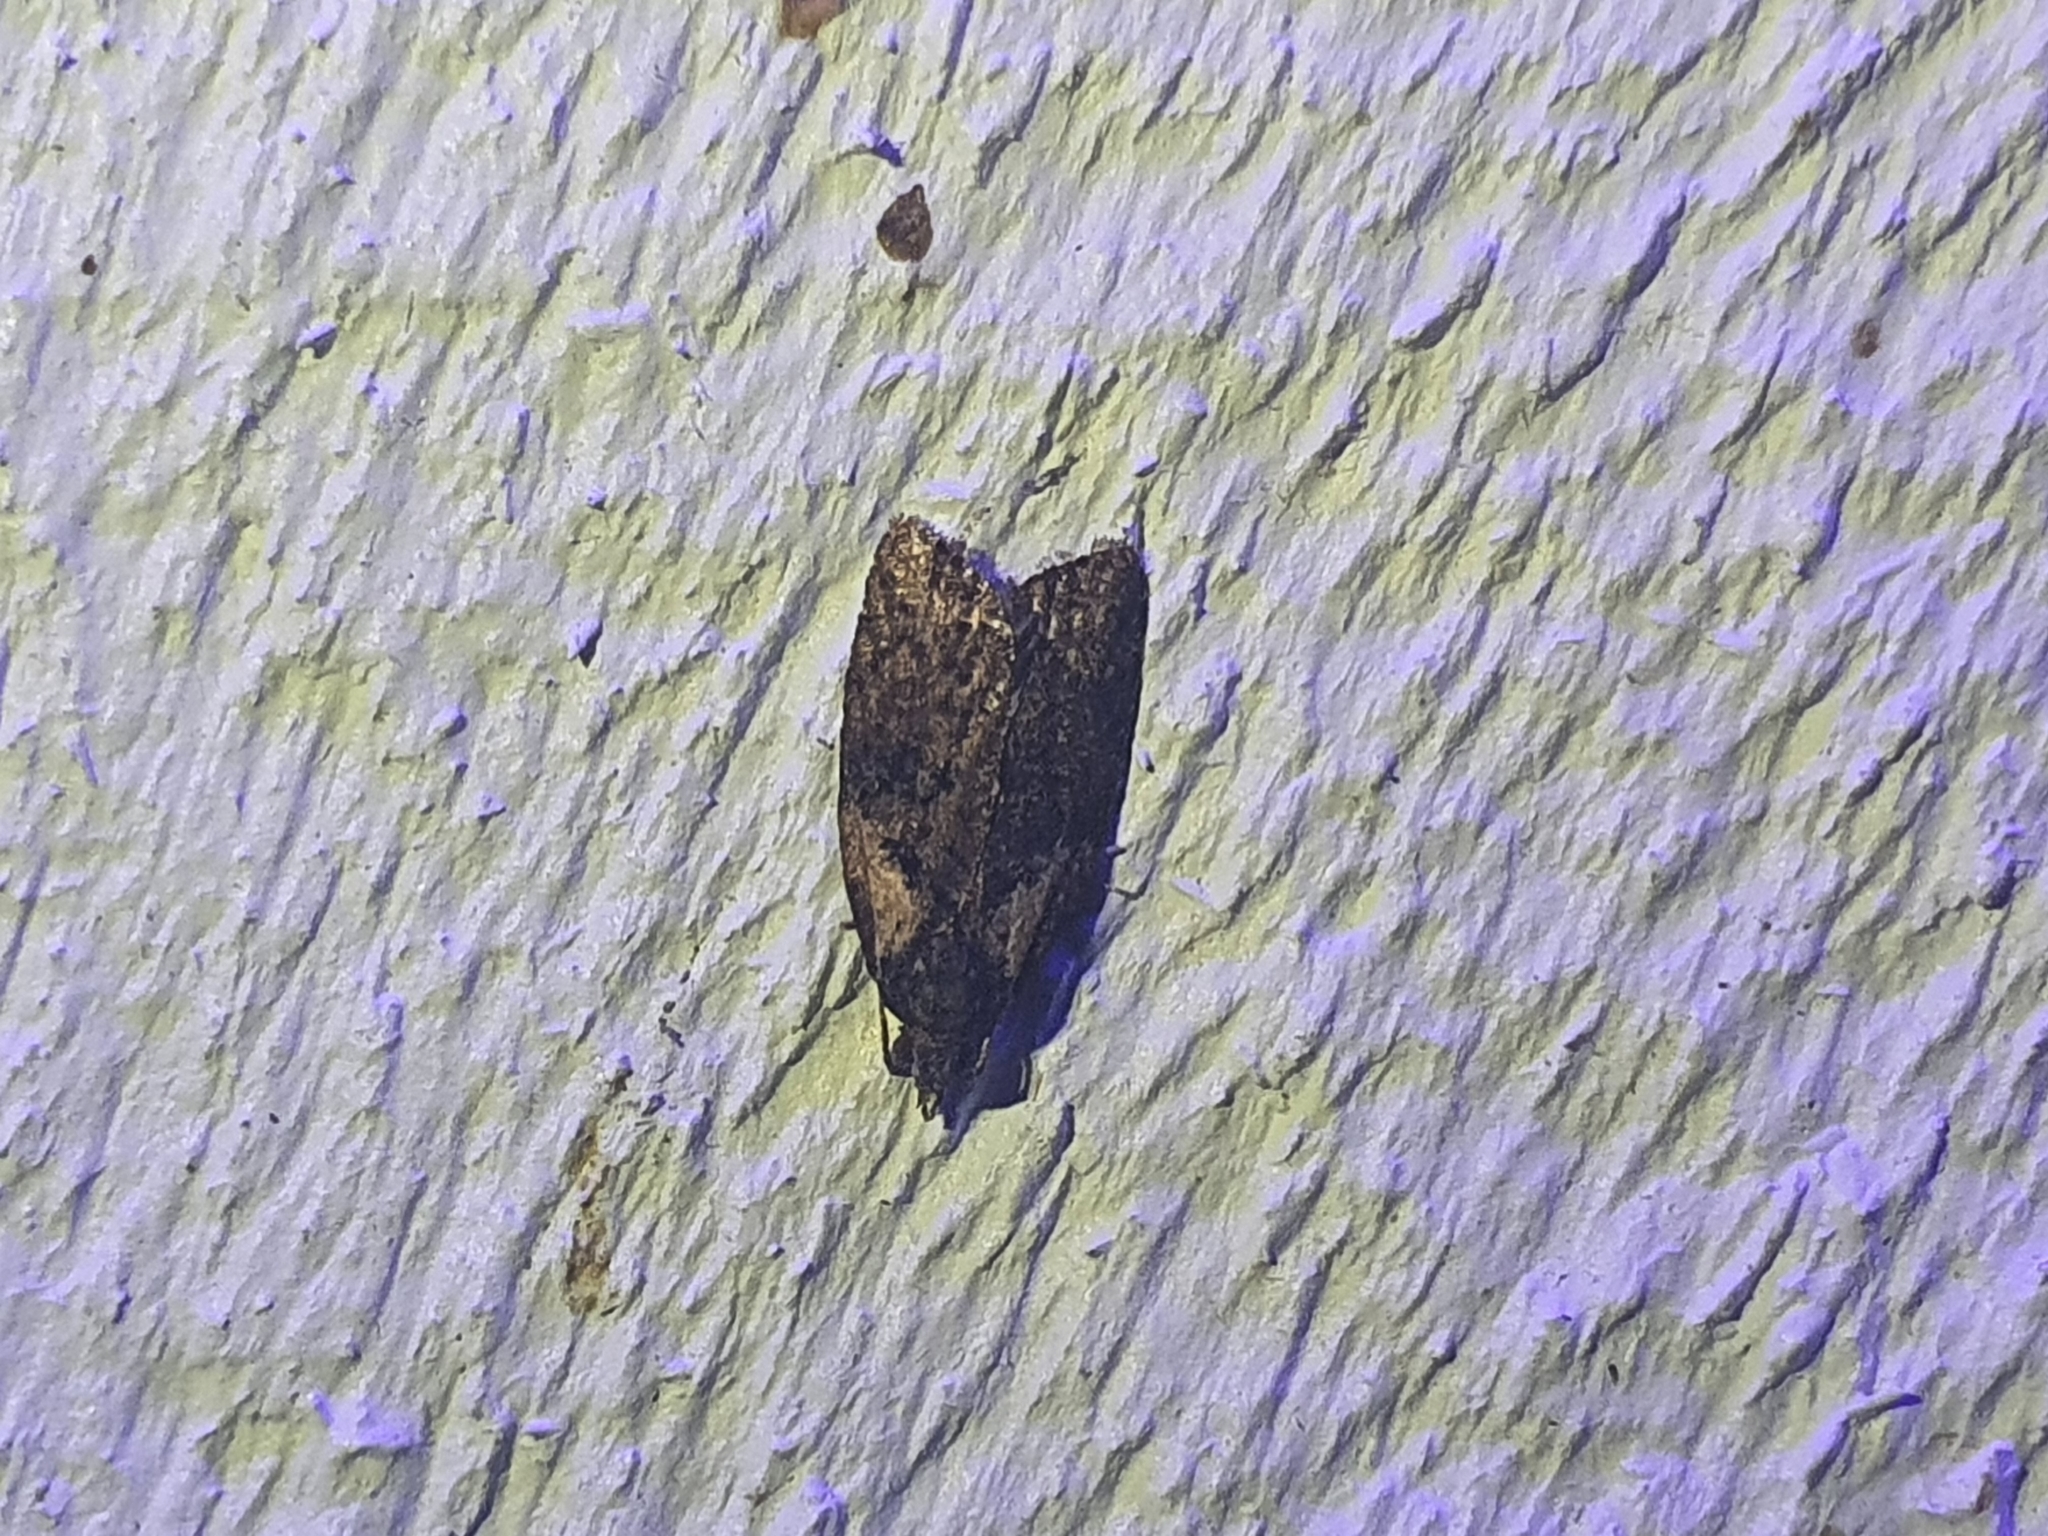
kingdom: Animalia
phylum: Arthropoda
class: Insecta
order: Lepidoptera
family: Tortricidae
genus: Capua
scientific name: Capua intractana
